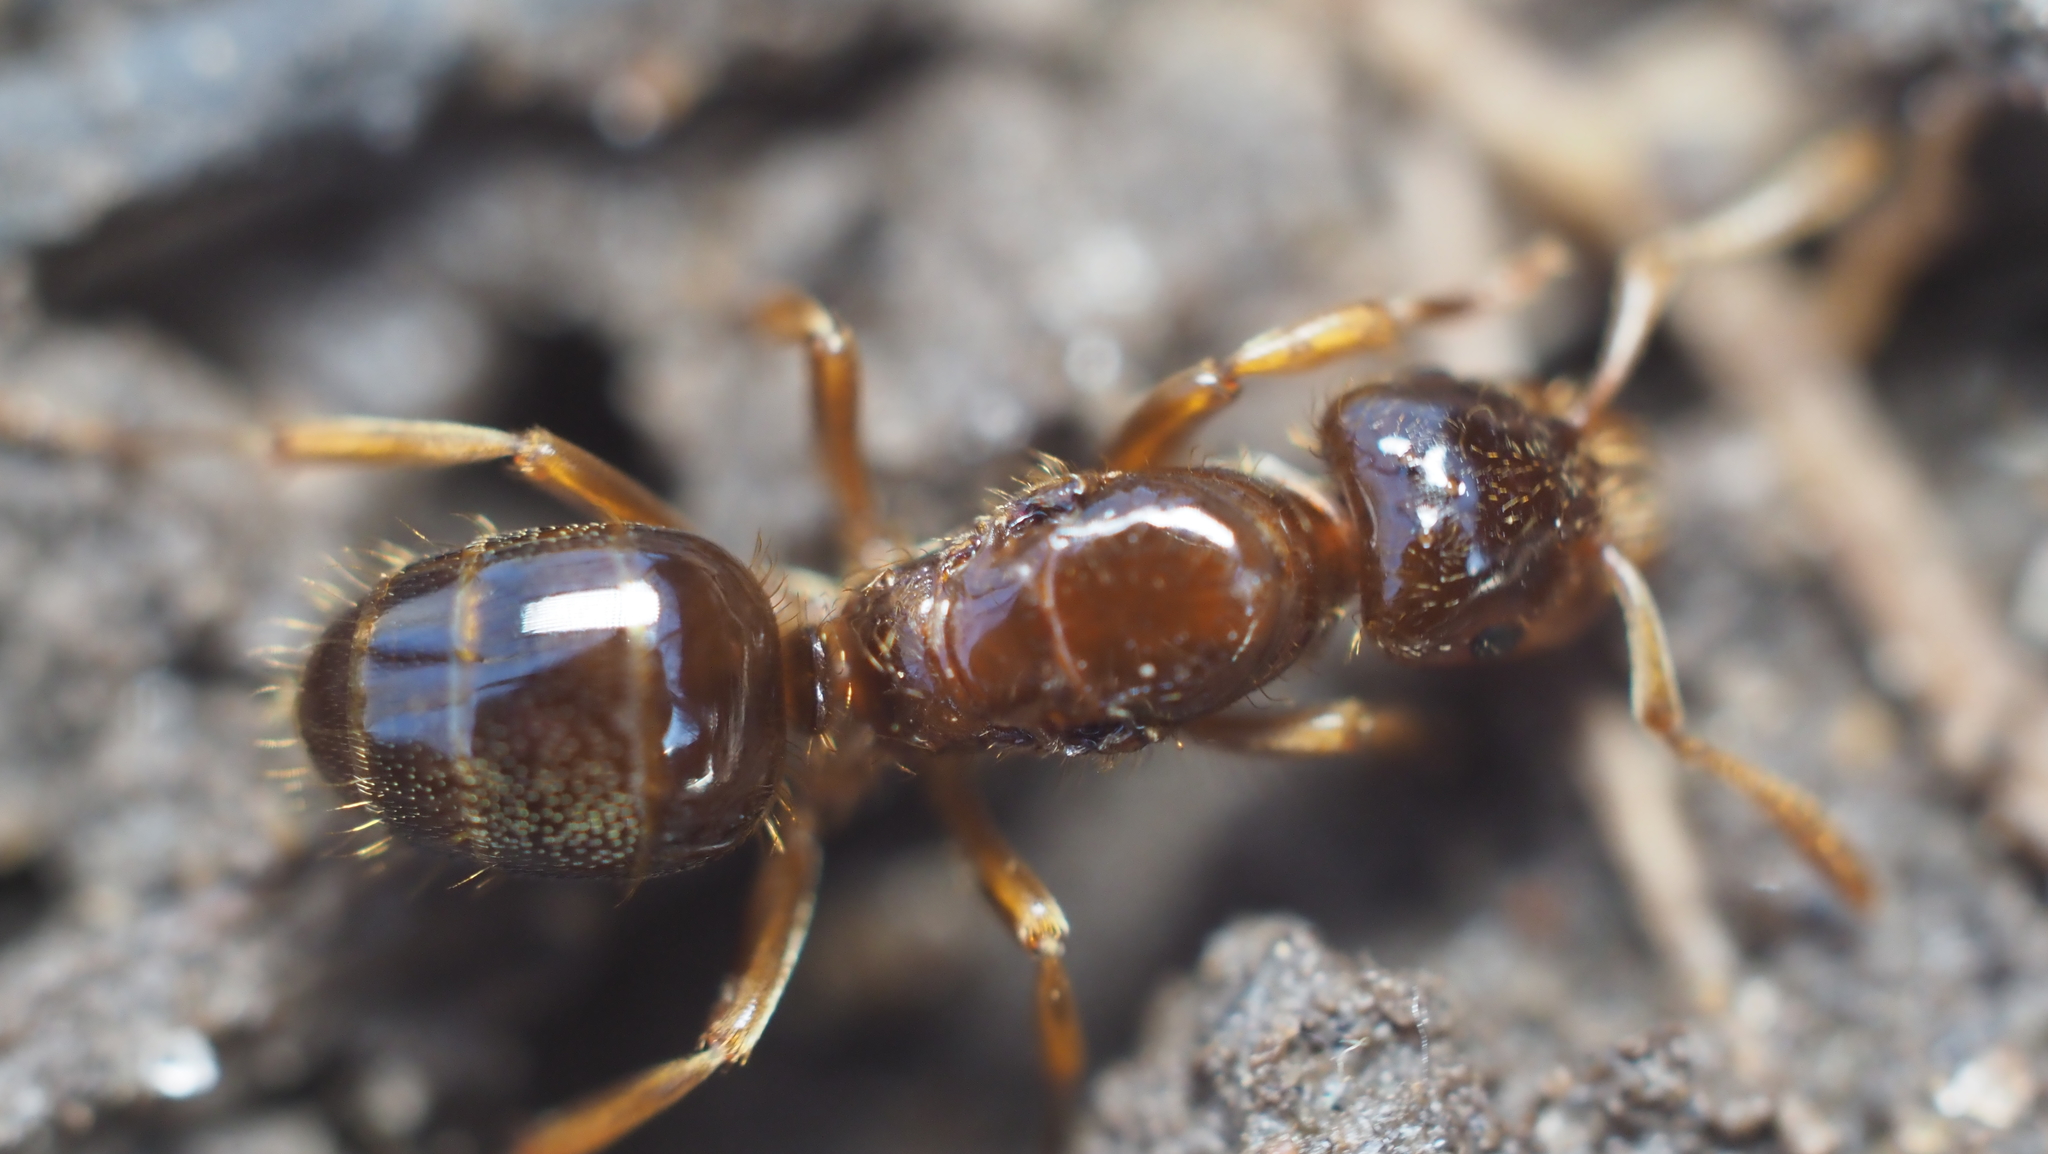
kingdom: Animalia
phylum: Arthropoda
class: Insecta
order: Hymenoptera
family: Formicidae
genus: Lasius
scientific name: Lasius claviger
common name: Common citronella ant
